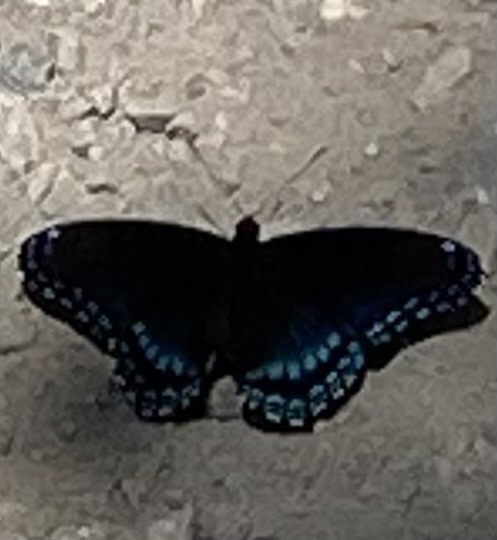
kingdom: Animalia
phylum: Arthropoda
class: Insecta
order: Lepidoptera
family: Nymphalidae
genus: Limenitis
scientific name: Limenitis astyanax
